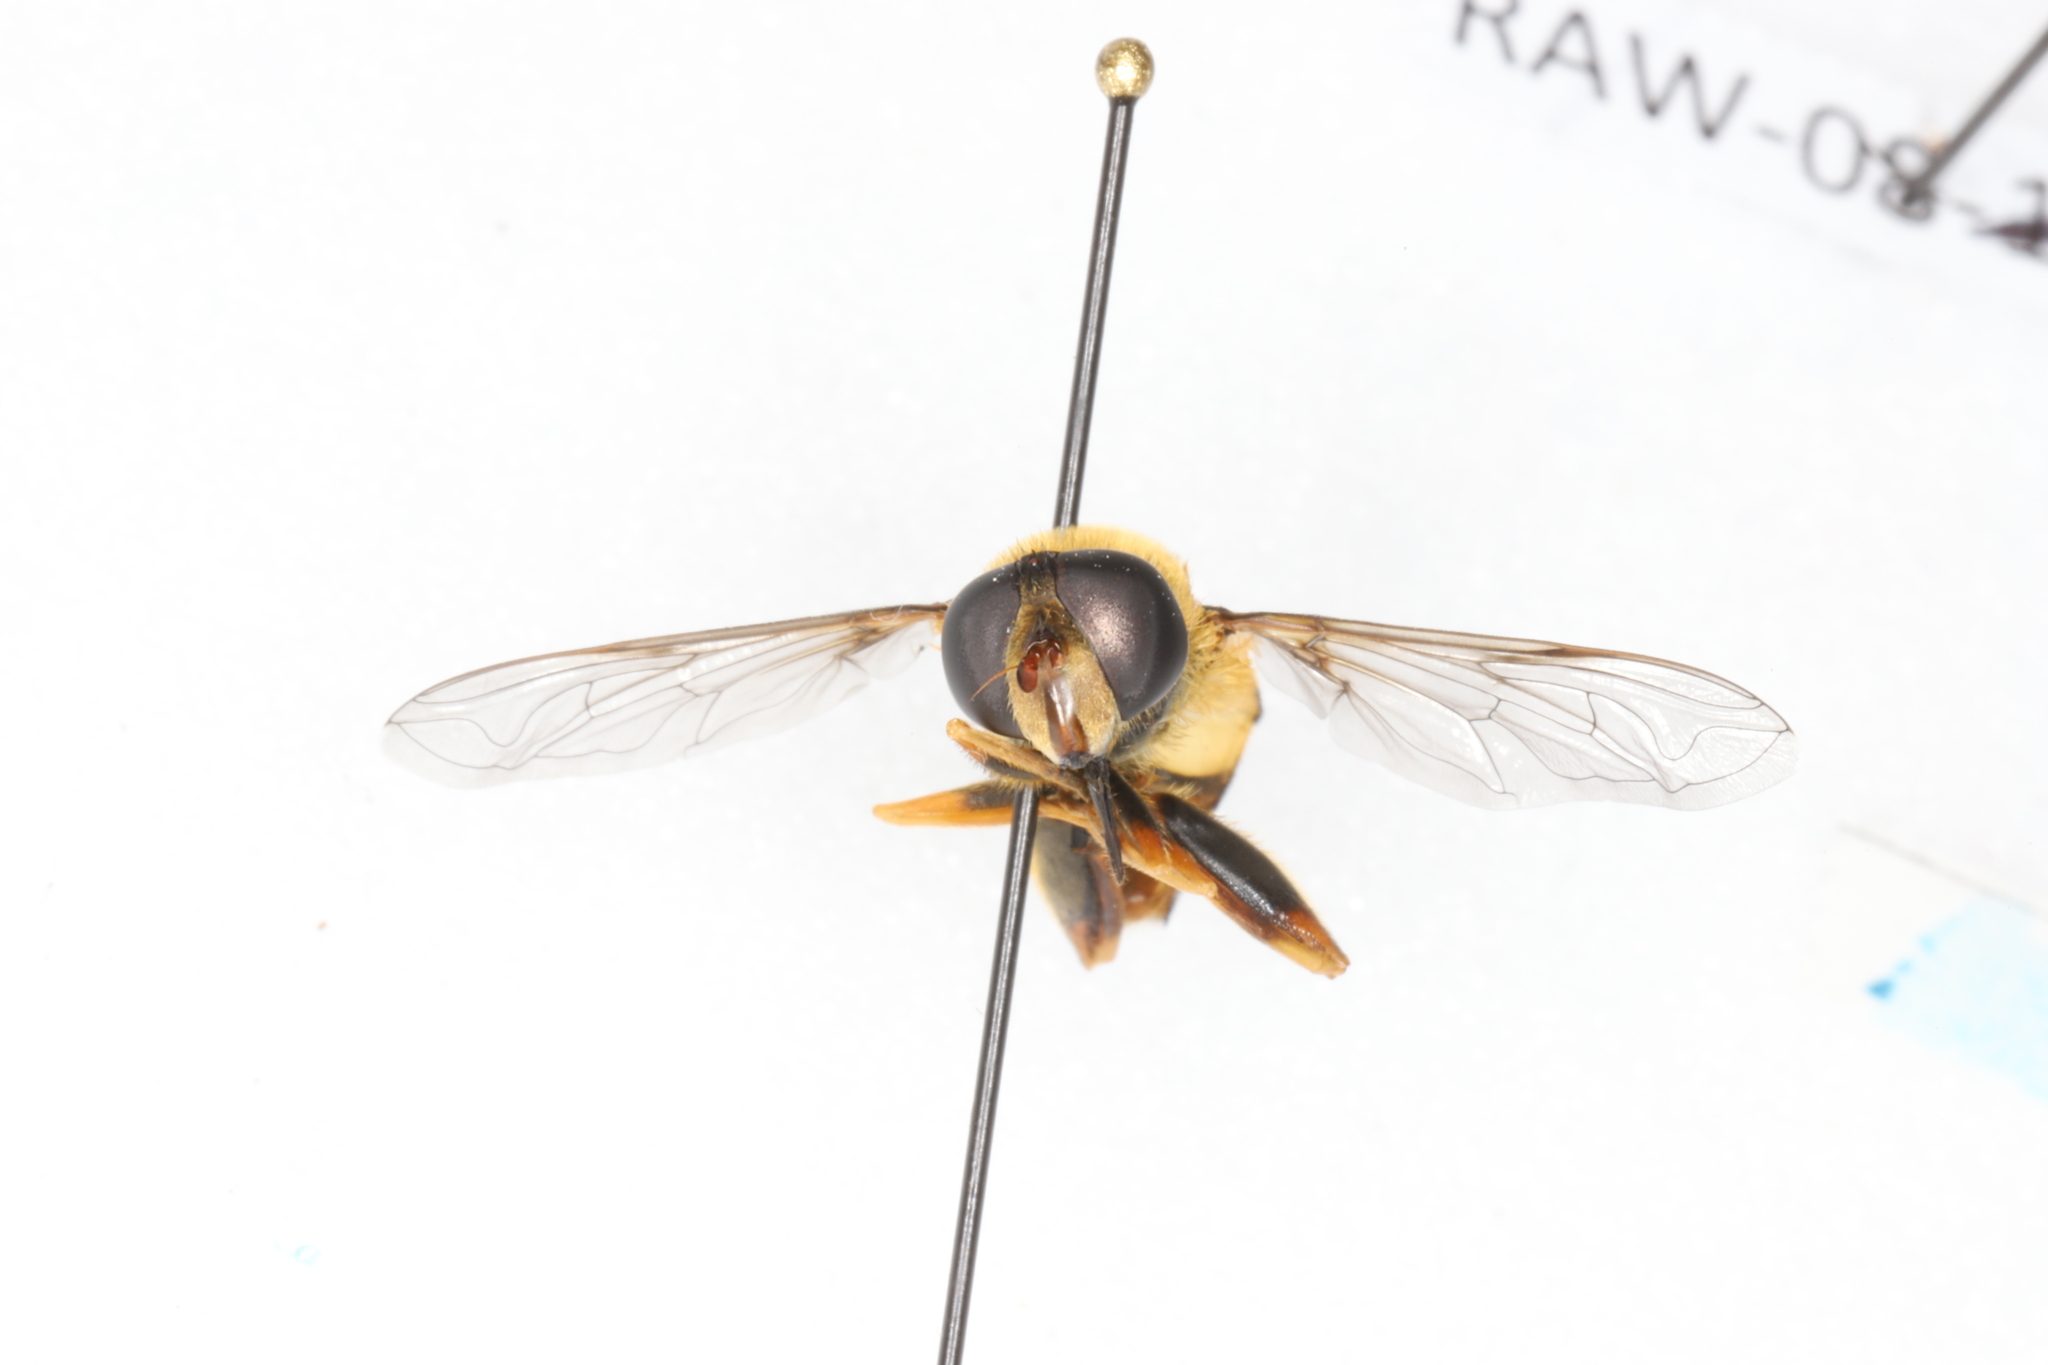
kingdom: Animalia
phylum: Arthropoda
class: Insecta
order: Diptera
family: Syrphidae
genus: Helophilus
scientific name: Helophilus fasciatus
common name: Narrow-headed marsh fly
